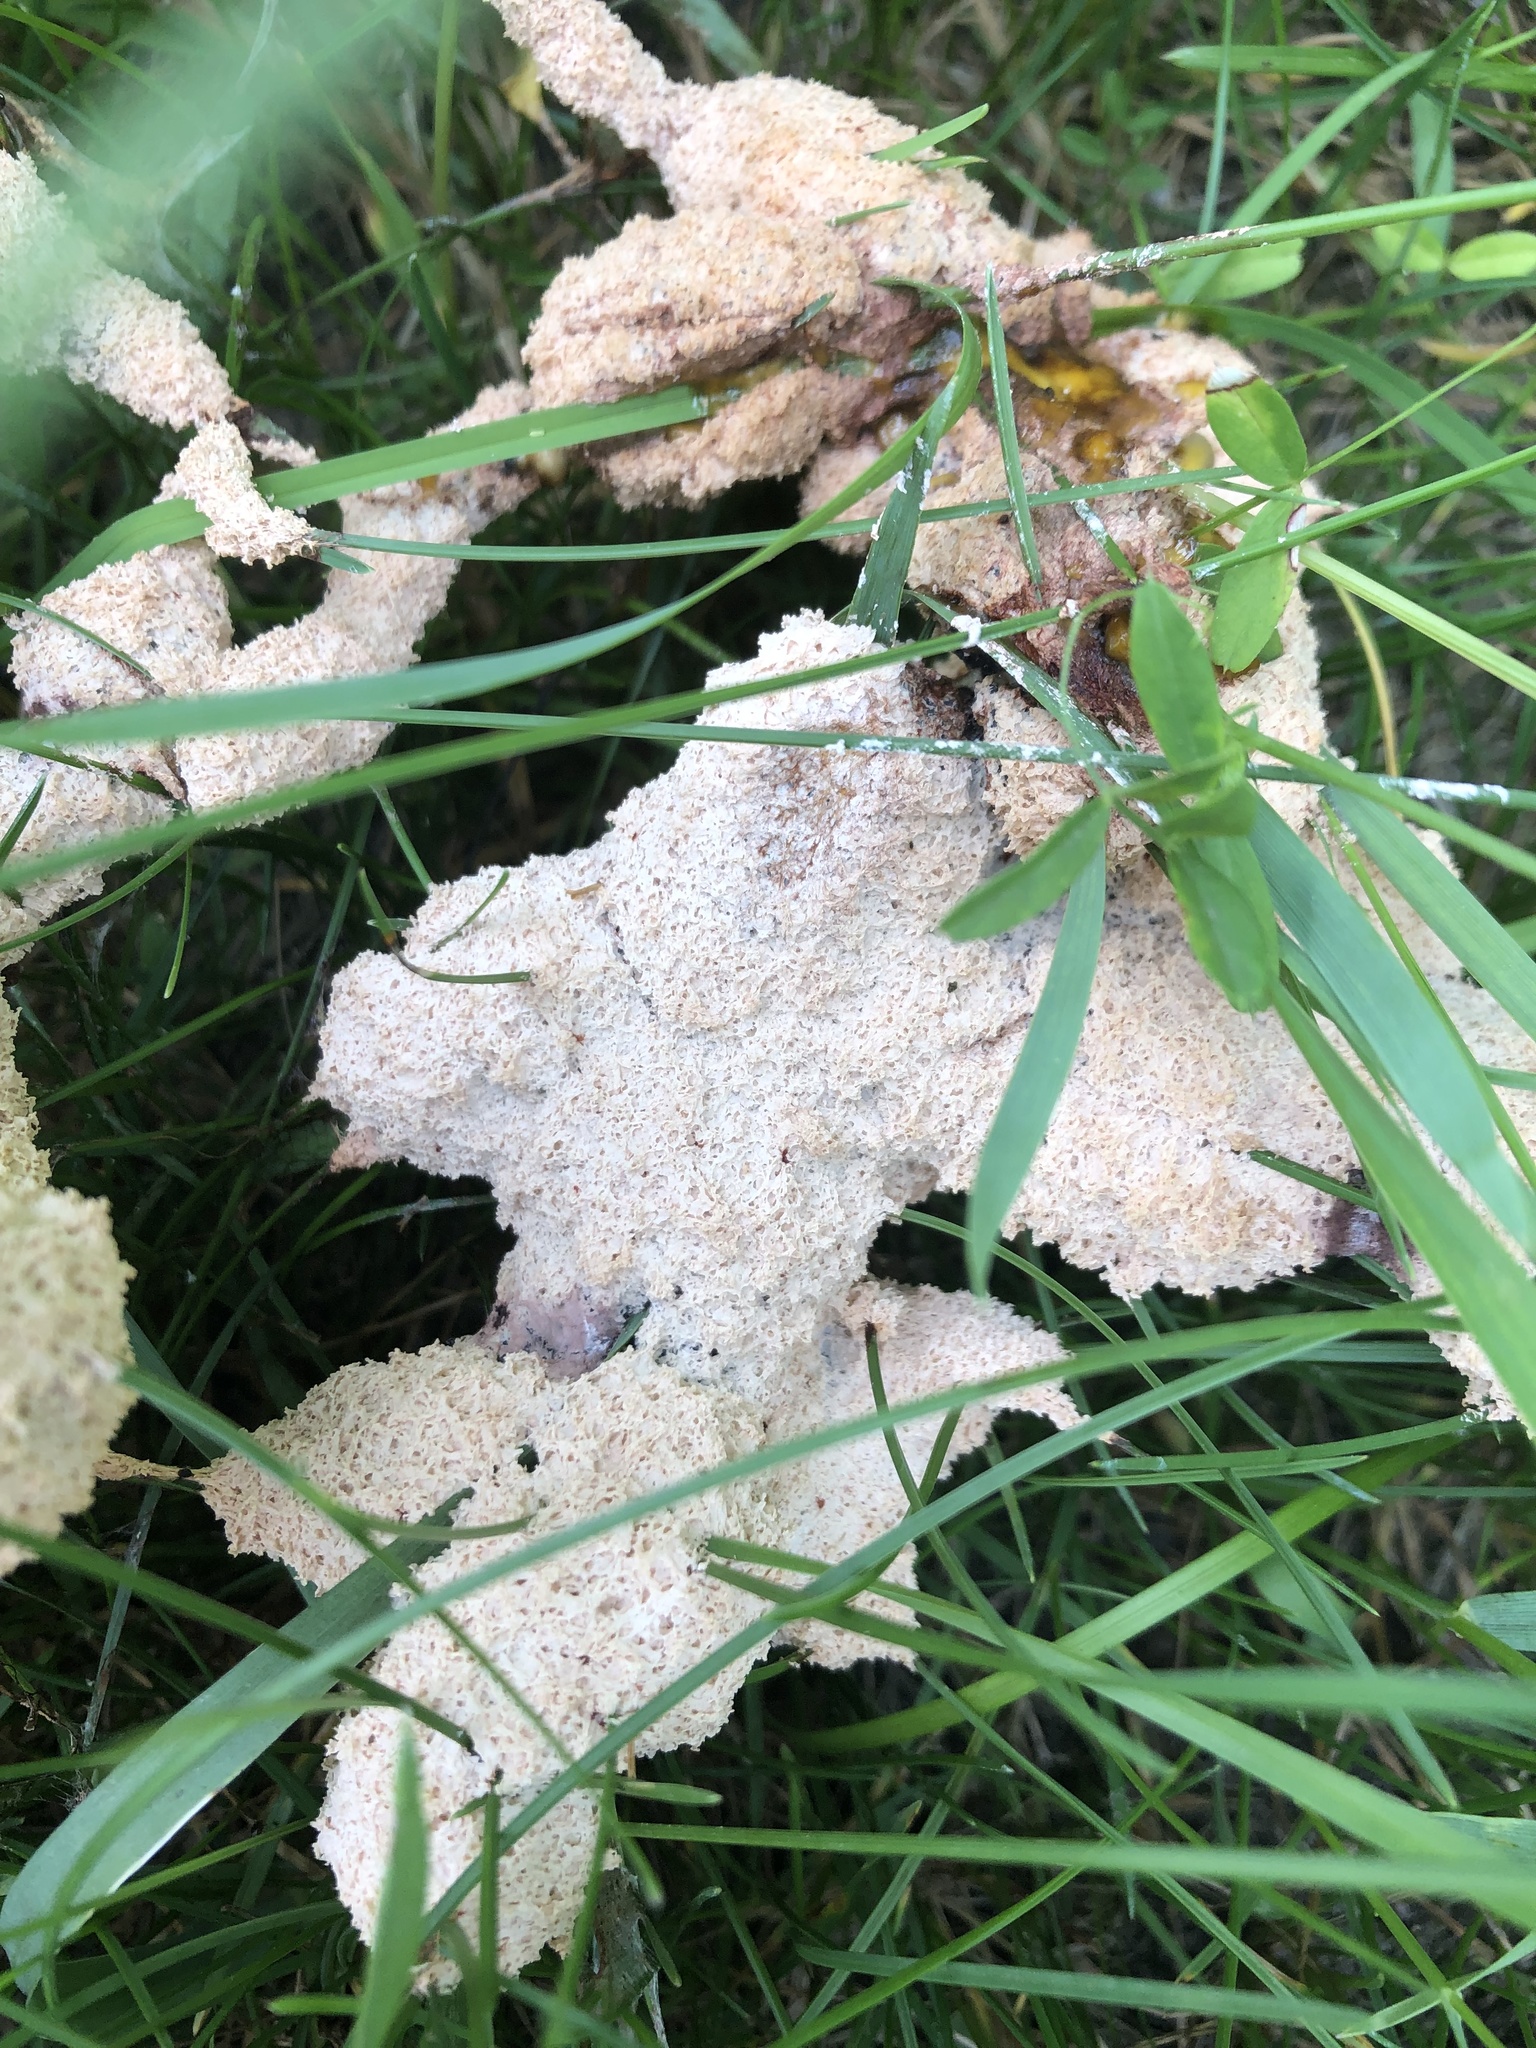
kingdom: Protozoa
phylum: Mycetozoa
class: Myxomycetes
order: Physarales
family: Physaraceae
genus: Fuligo
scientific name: Fuligo septica
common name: Dog vomit slime mold
